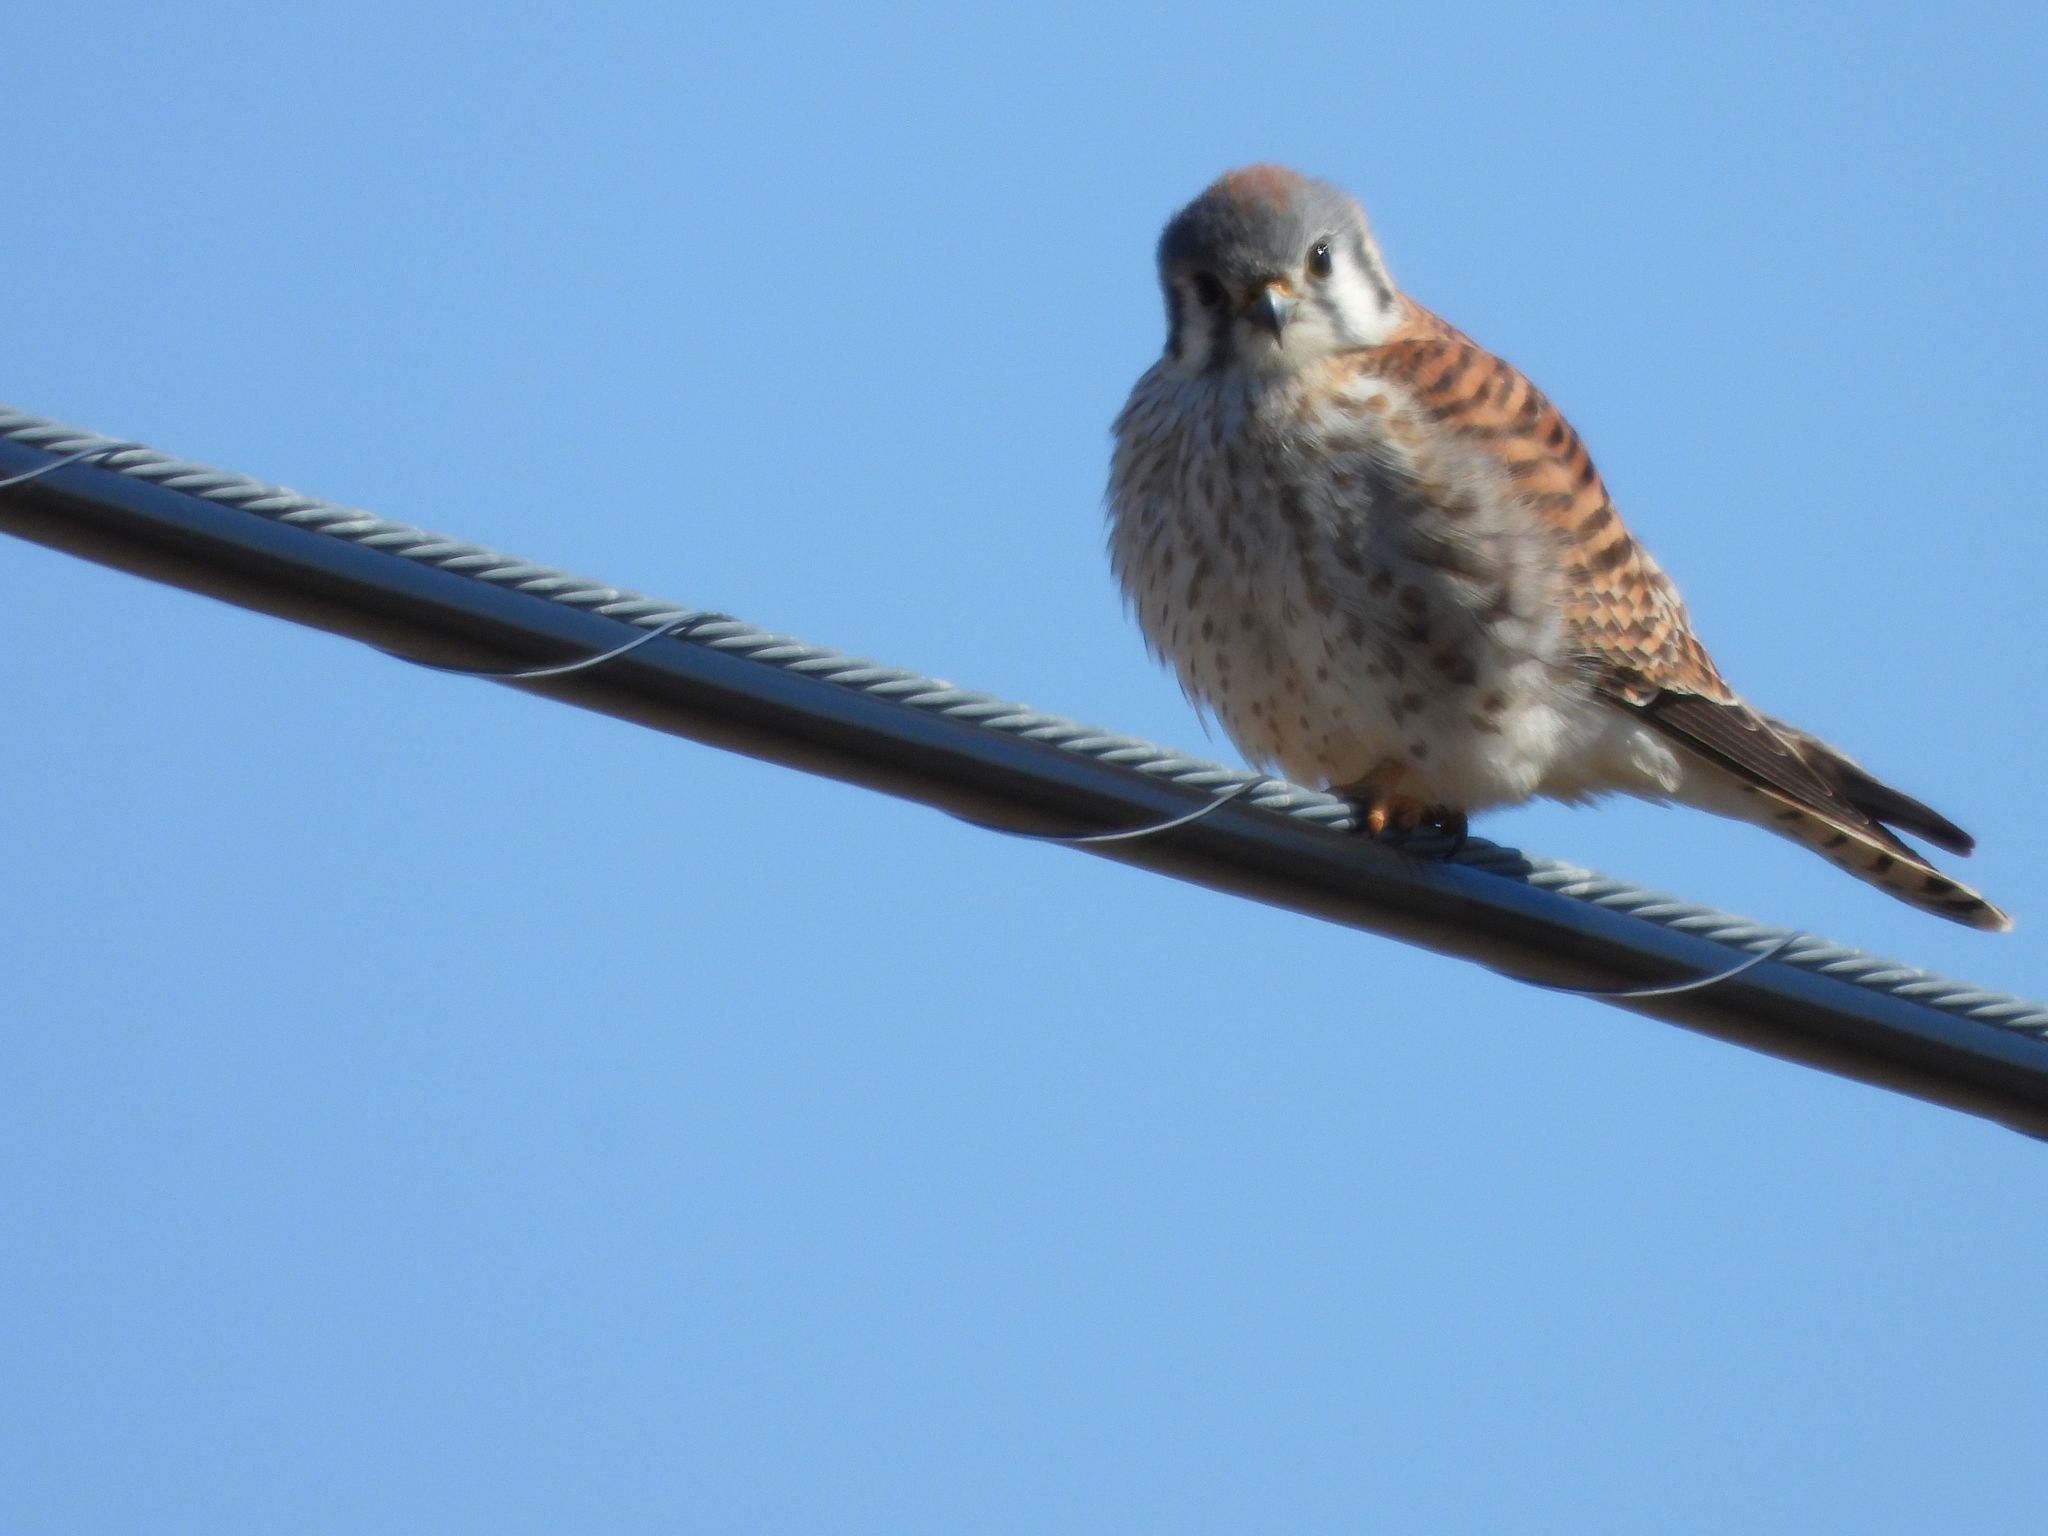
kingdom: Animalia
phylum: Chordata
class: Aves
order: Falconiformes
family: Falconidae
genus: Falco
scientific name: Falco sparverius
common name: American kestrel
